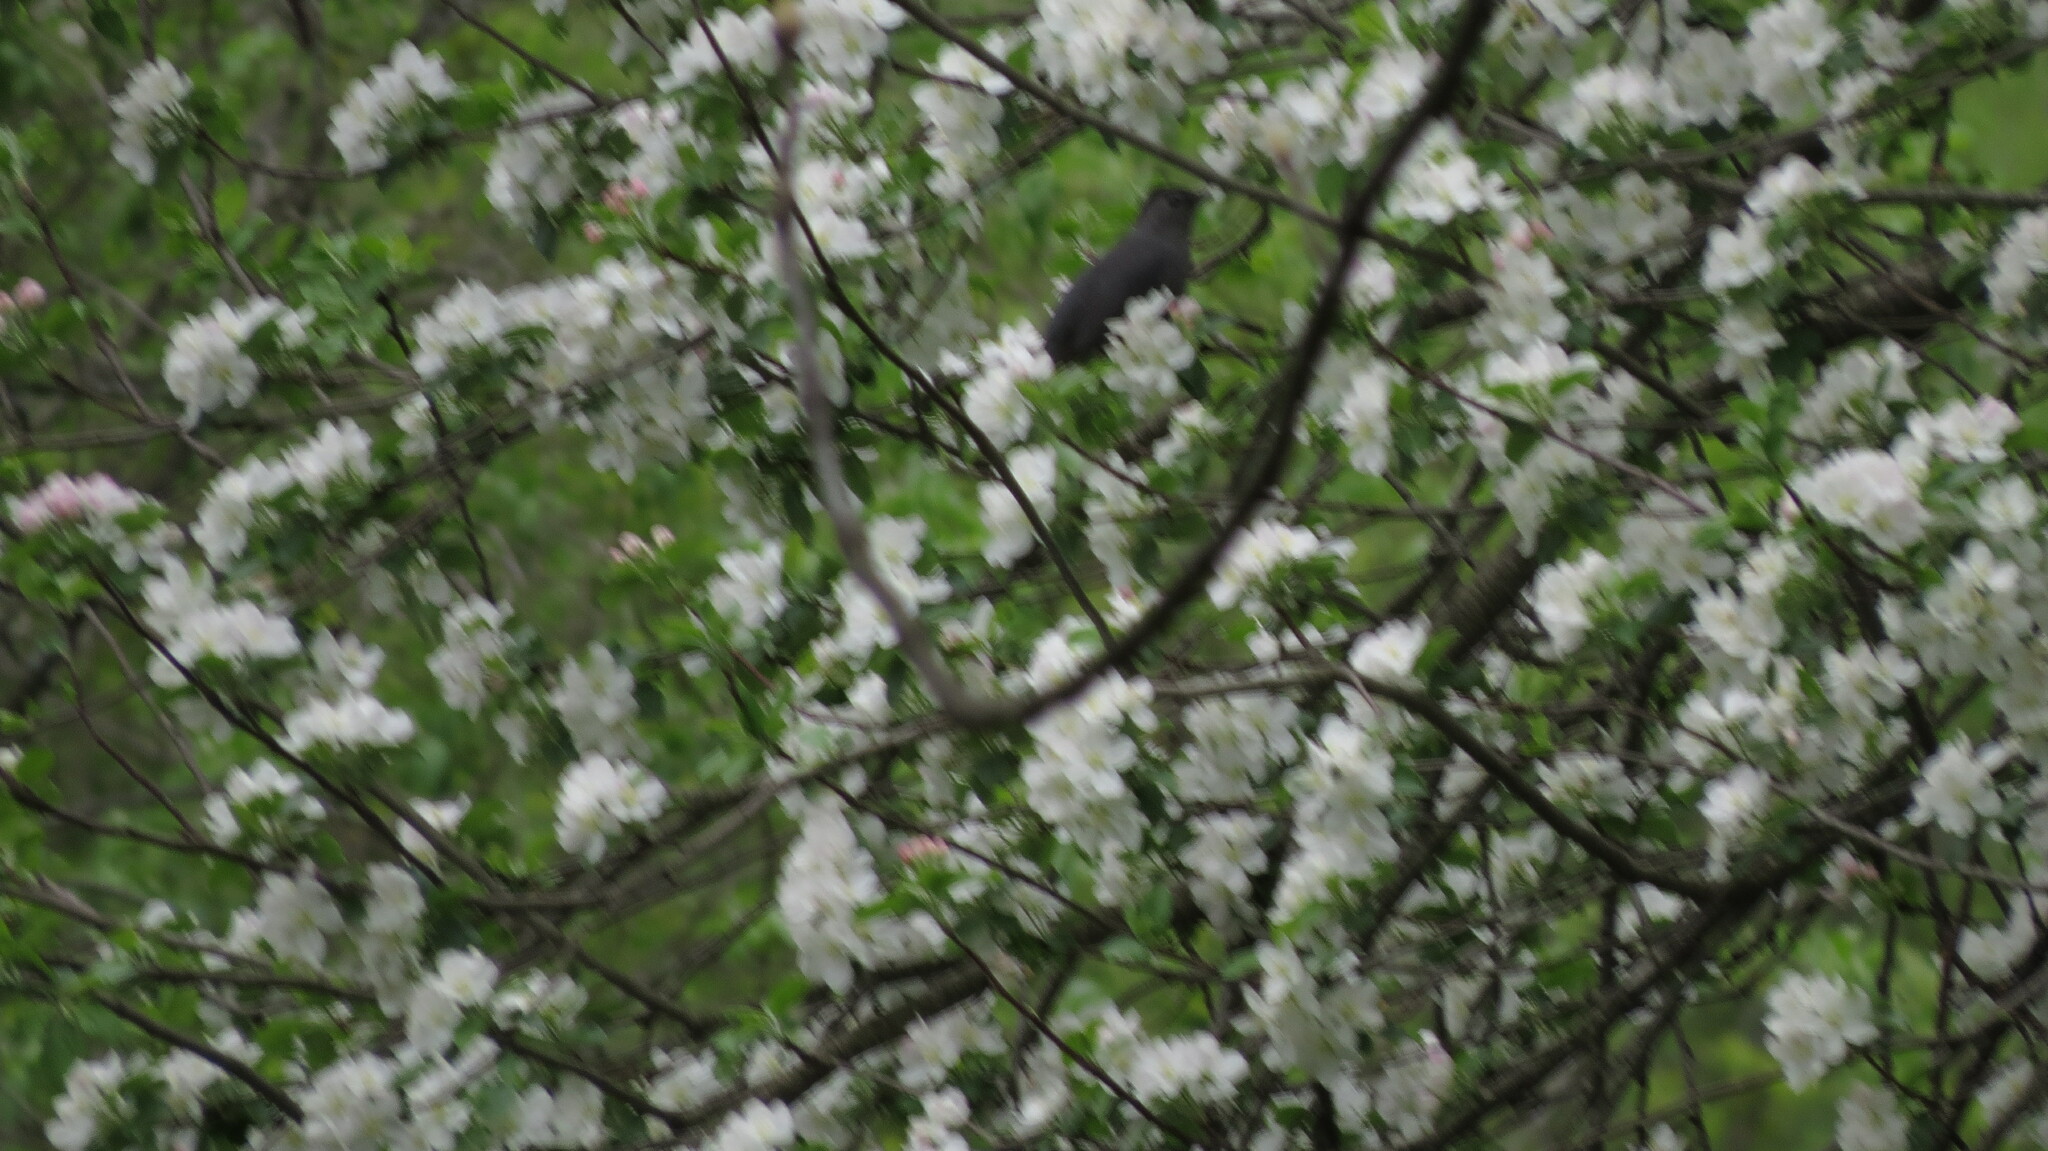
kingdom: Animalia
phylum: Chordata
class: Aves
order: Passeriformes
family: Mimidae
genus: Dumetella
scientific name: Dumetella carolinensis
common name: Gray catbird
